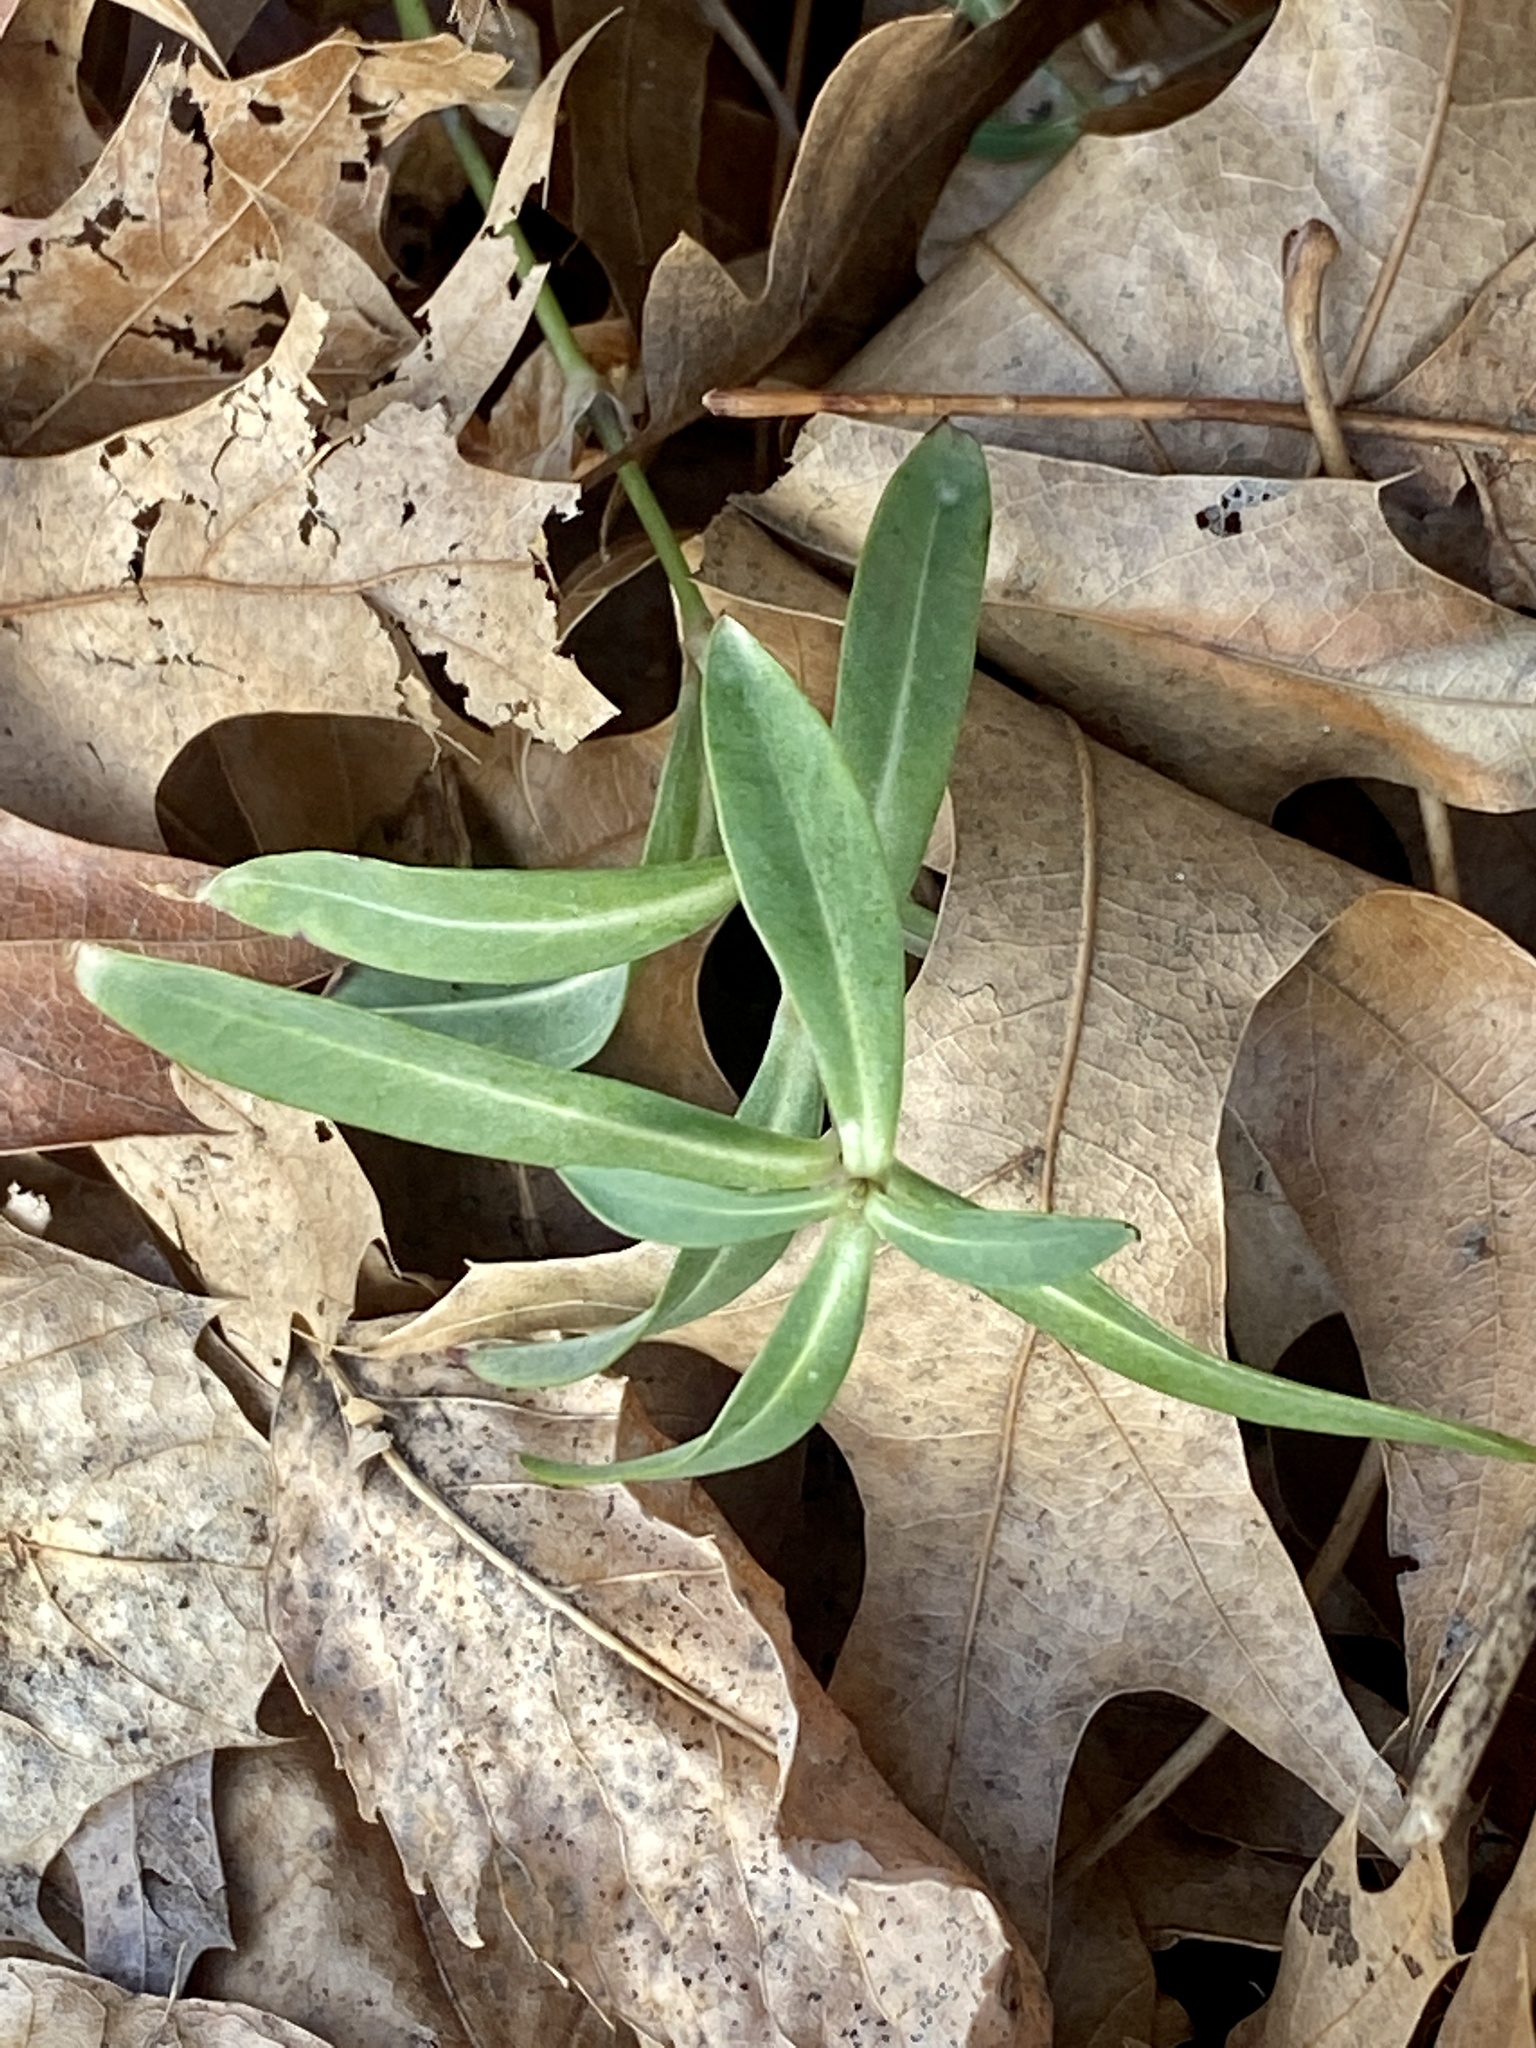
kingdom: Plantae
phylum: Tracheophyta
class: Magnoliopsida
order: Caryophyllales
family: Caryophyllaceae
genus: Silene
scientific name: Silene vulgaris
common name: Bladder campion
